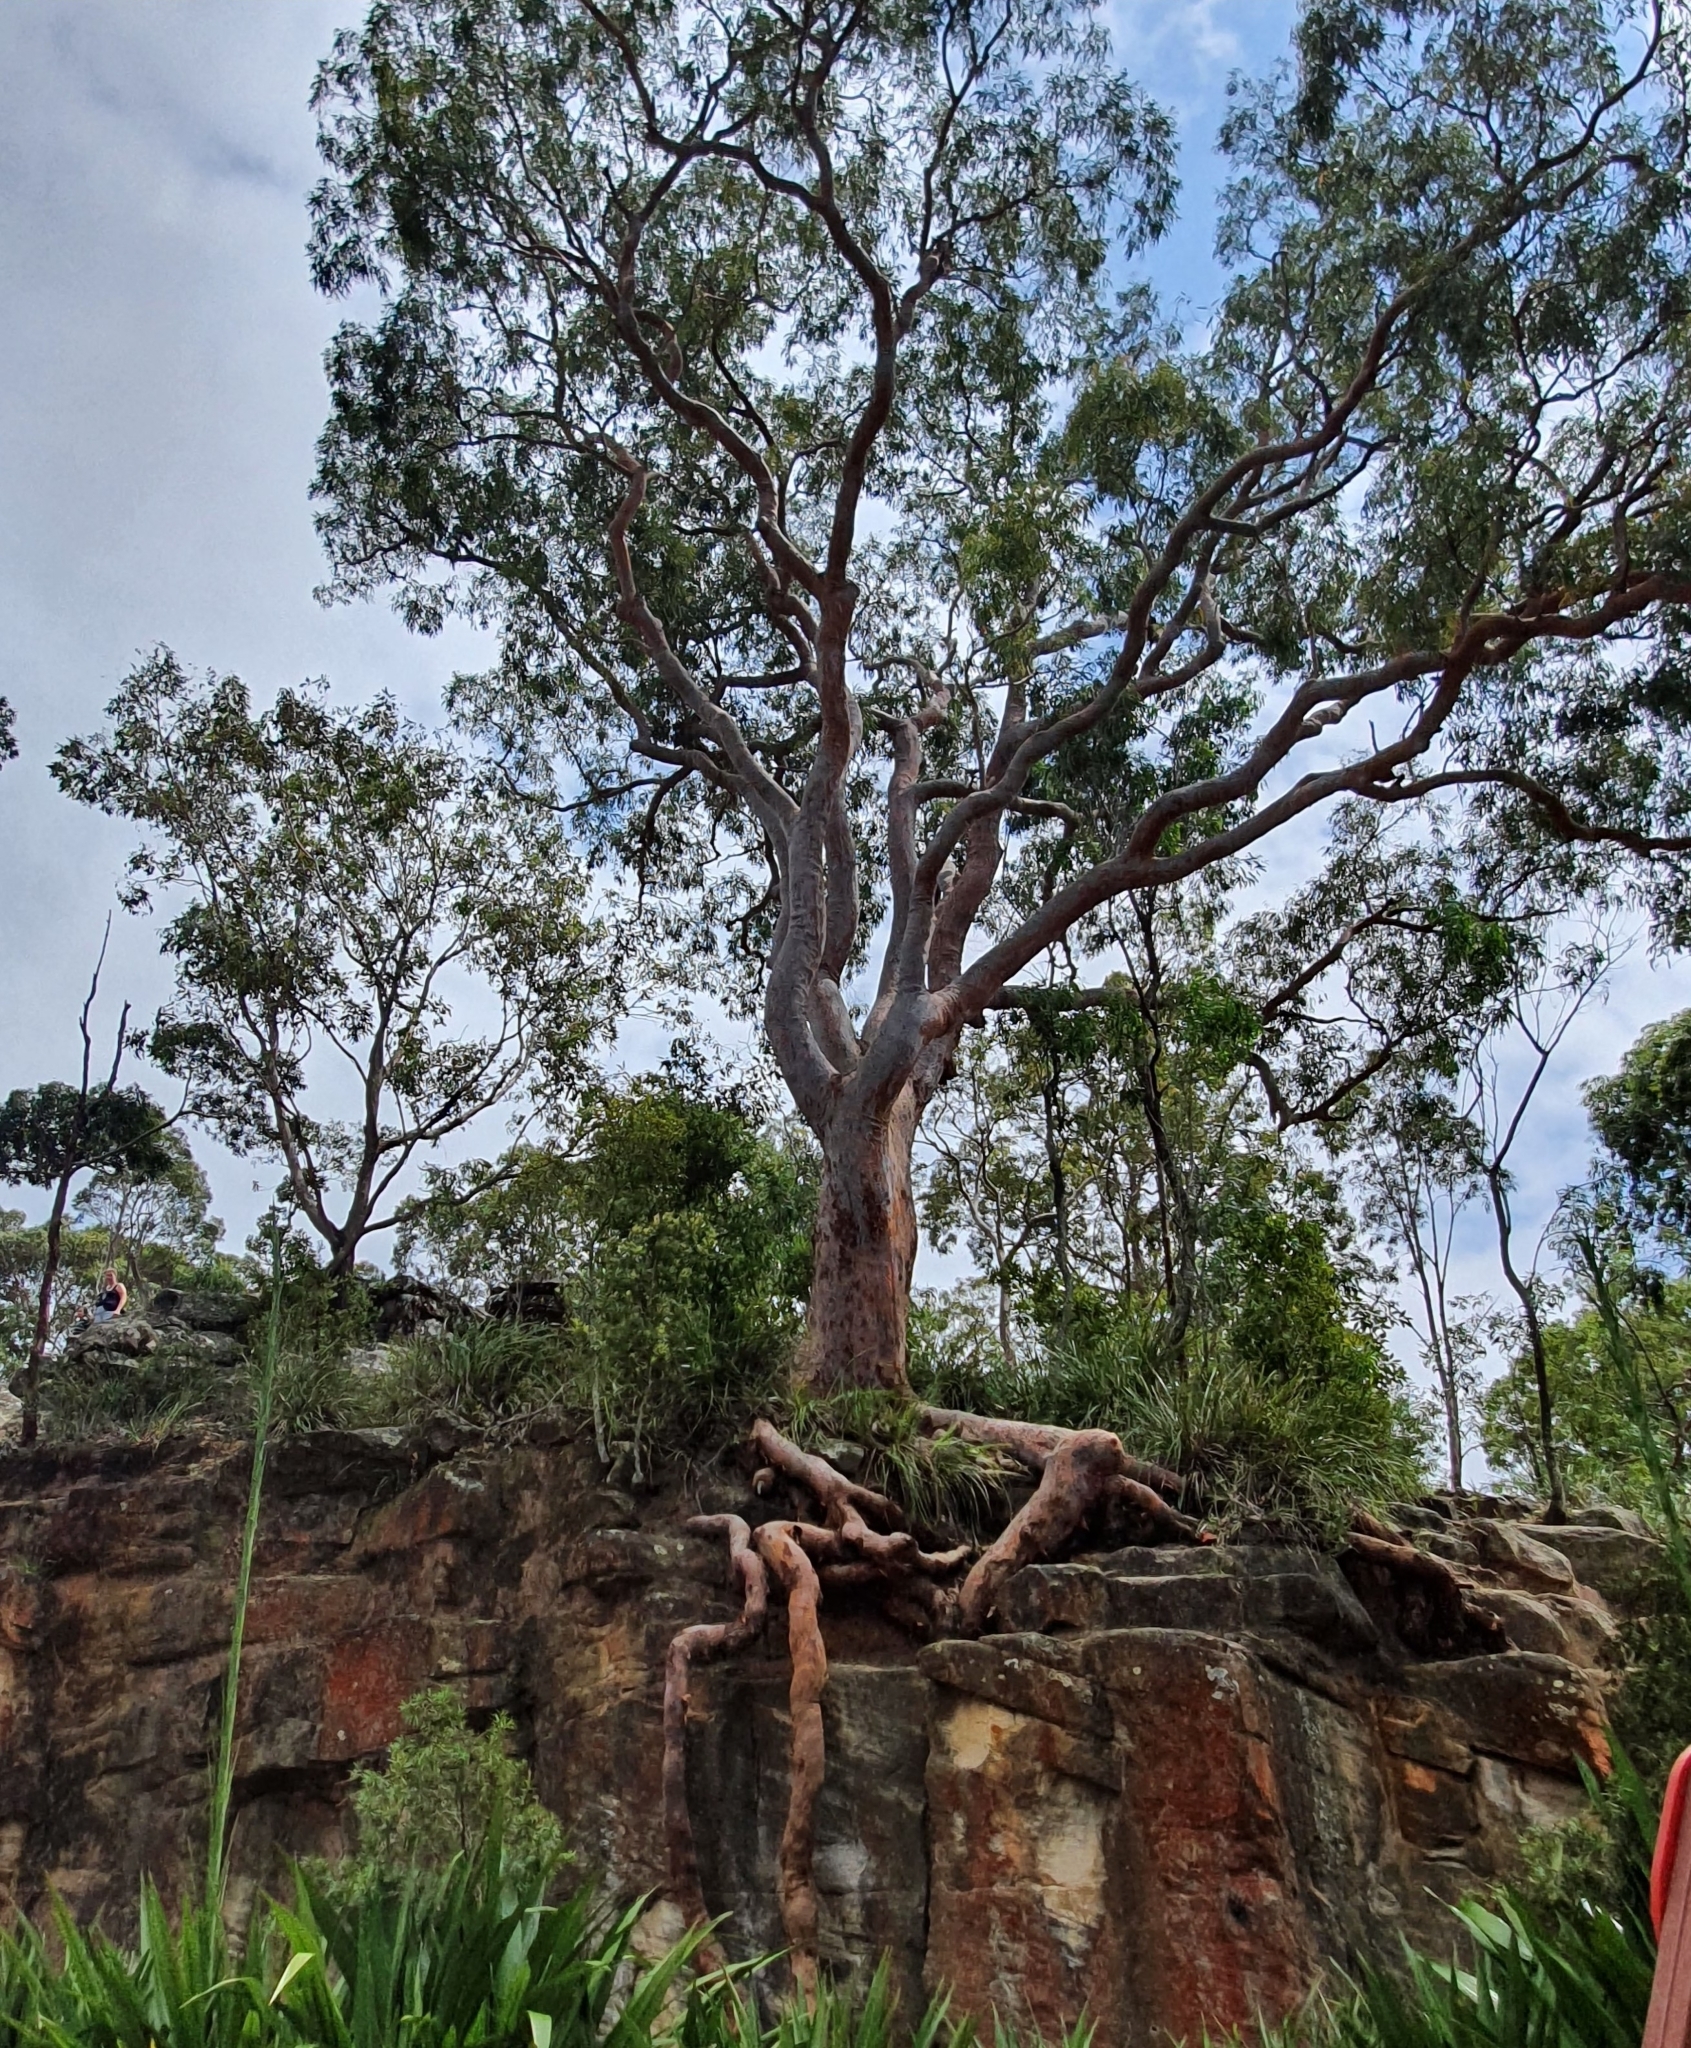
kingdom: Plantae
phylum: Tracheophyta
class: Magnoliopsida
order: Myrtales
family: Myrtaceae
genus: Angophora
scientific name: Angophora costata
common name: Gum myrtle
